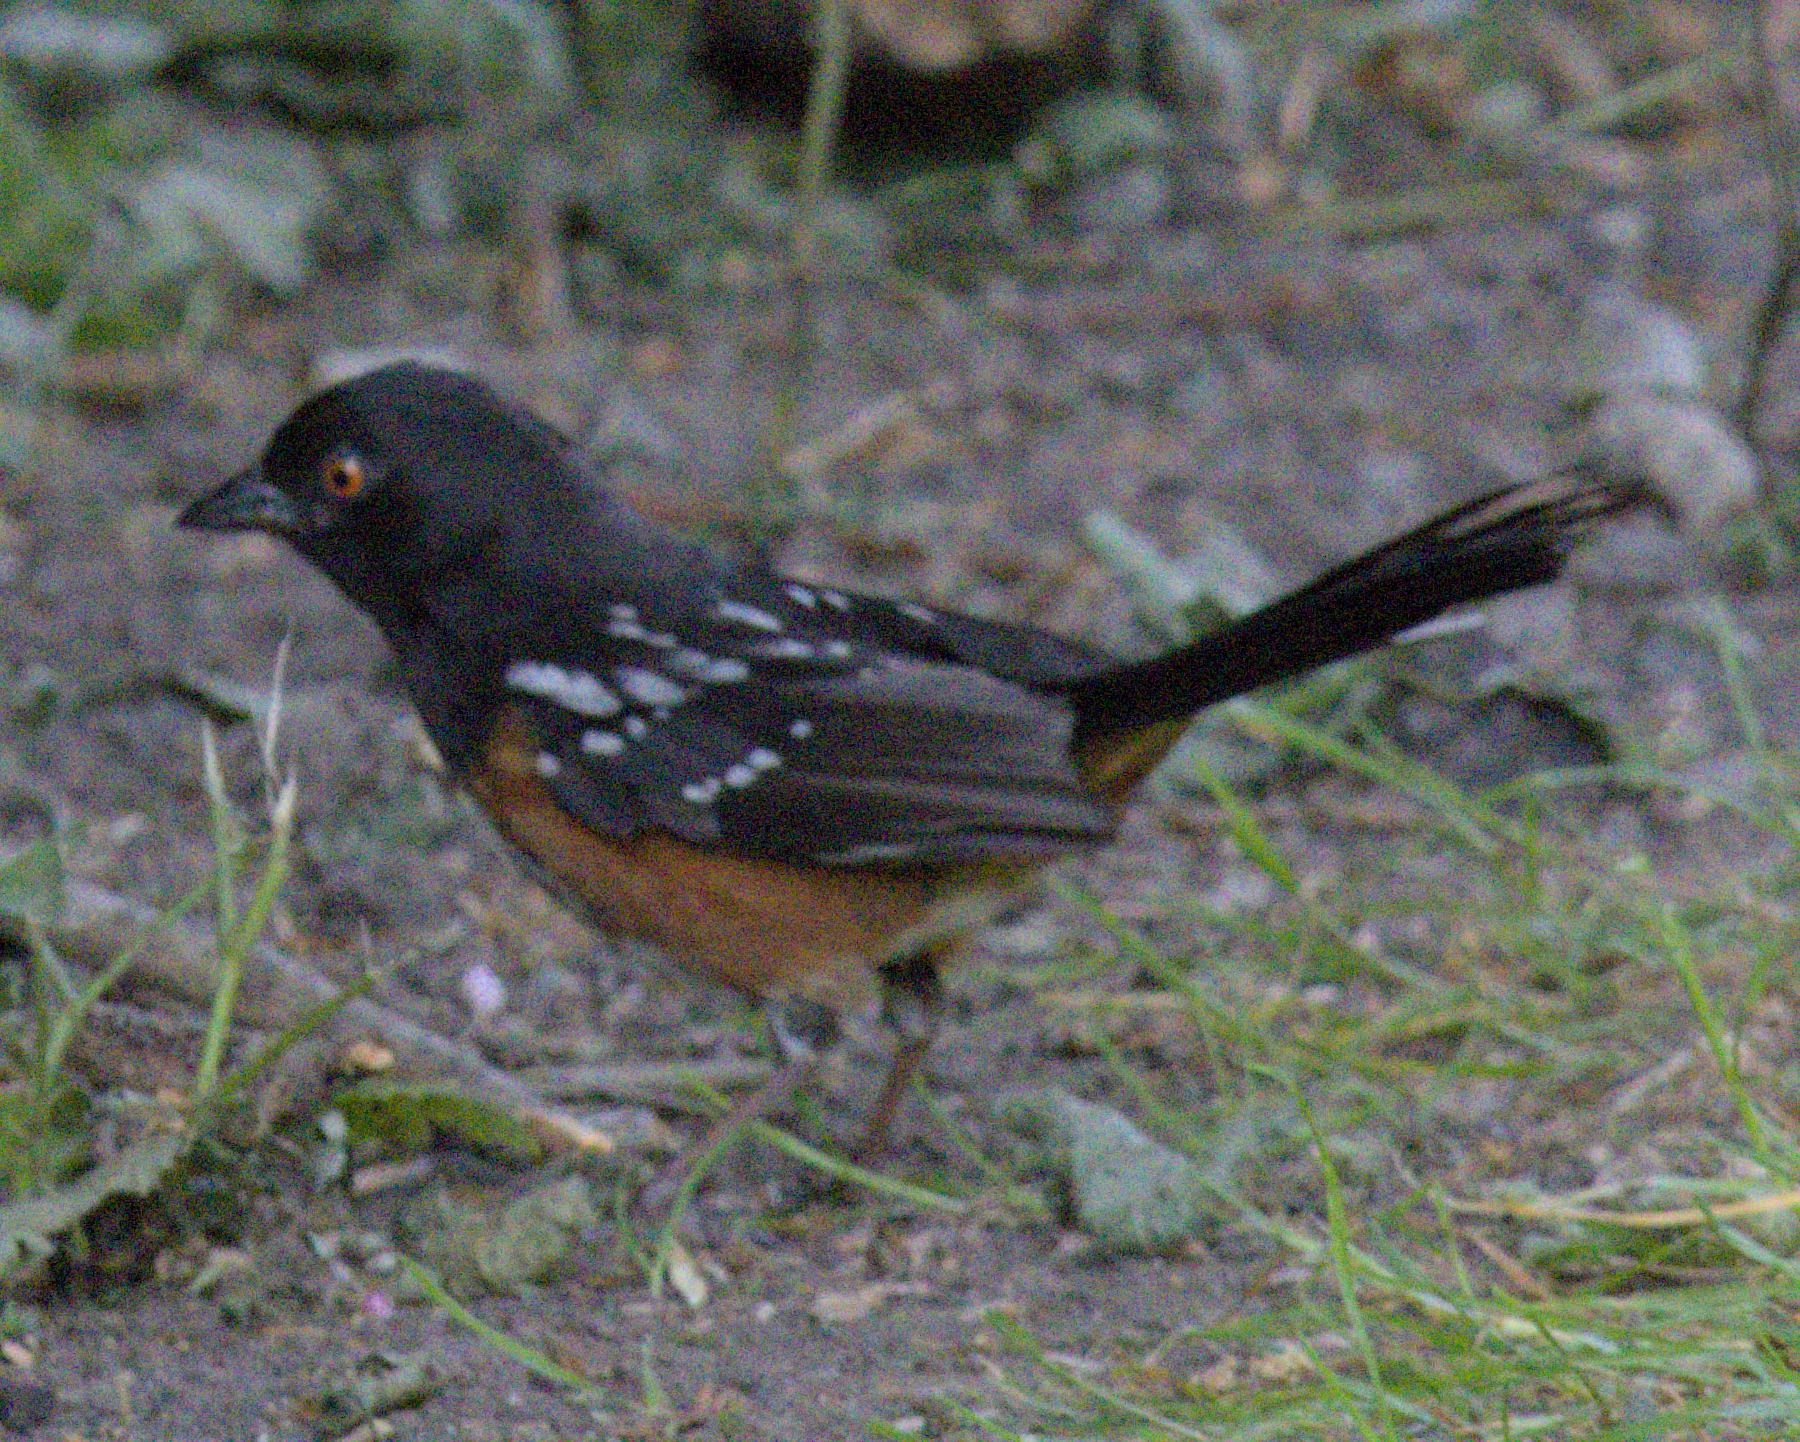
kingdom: Animalia
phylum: Chordata
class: Aves
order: Passeriformes
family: Passerellidae
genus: Pipilo
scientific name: Pipilo maculatus
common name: Spotted towhee
